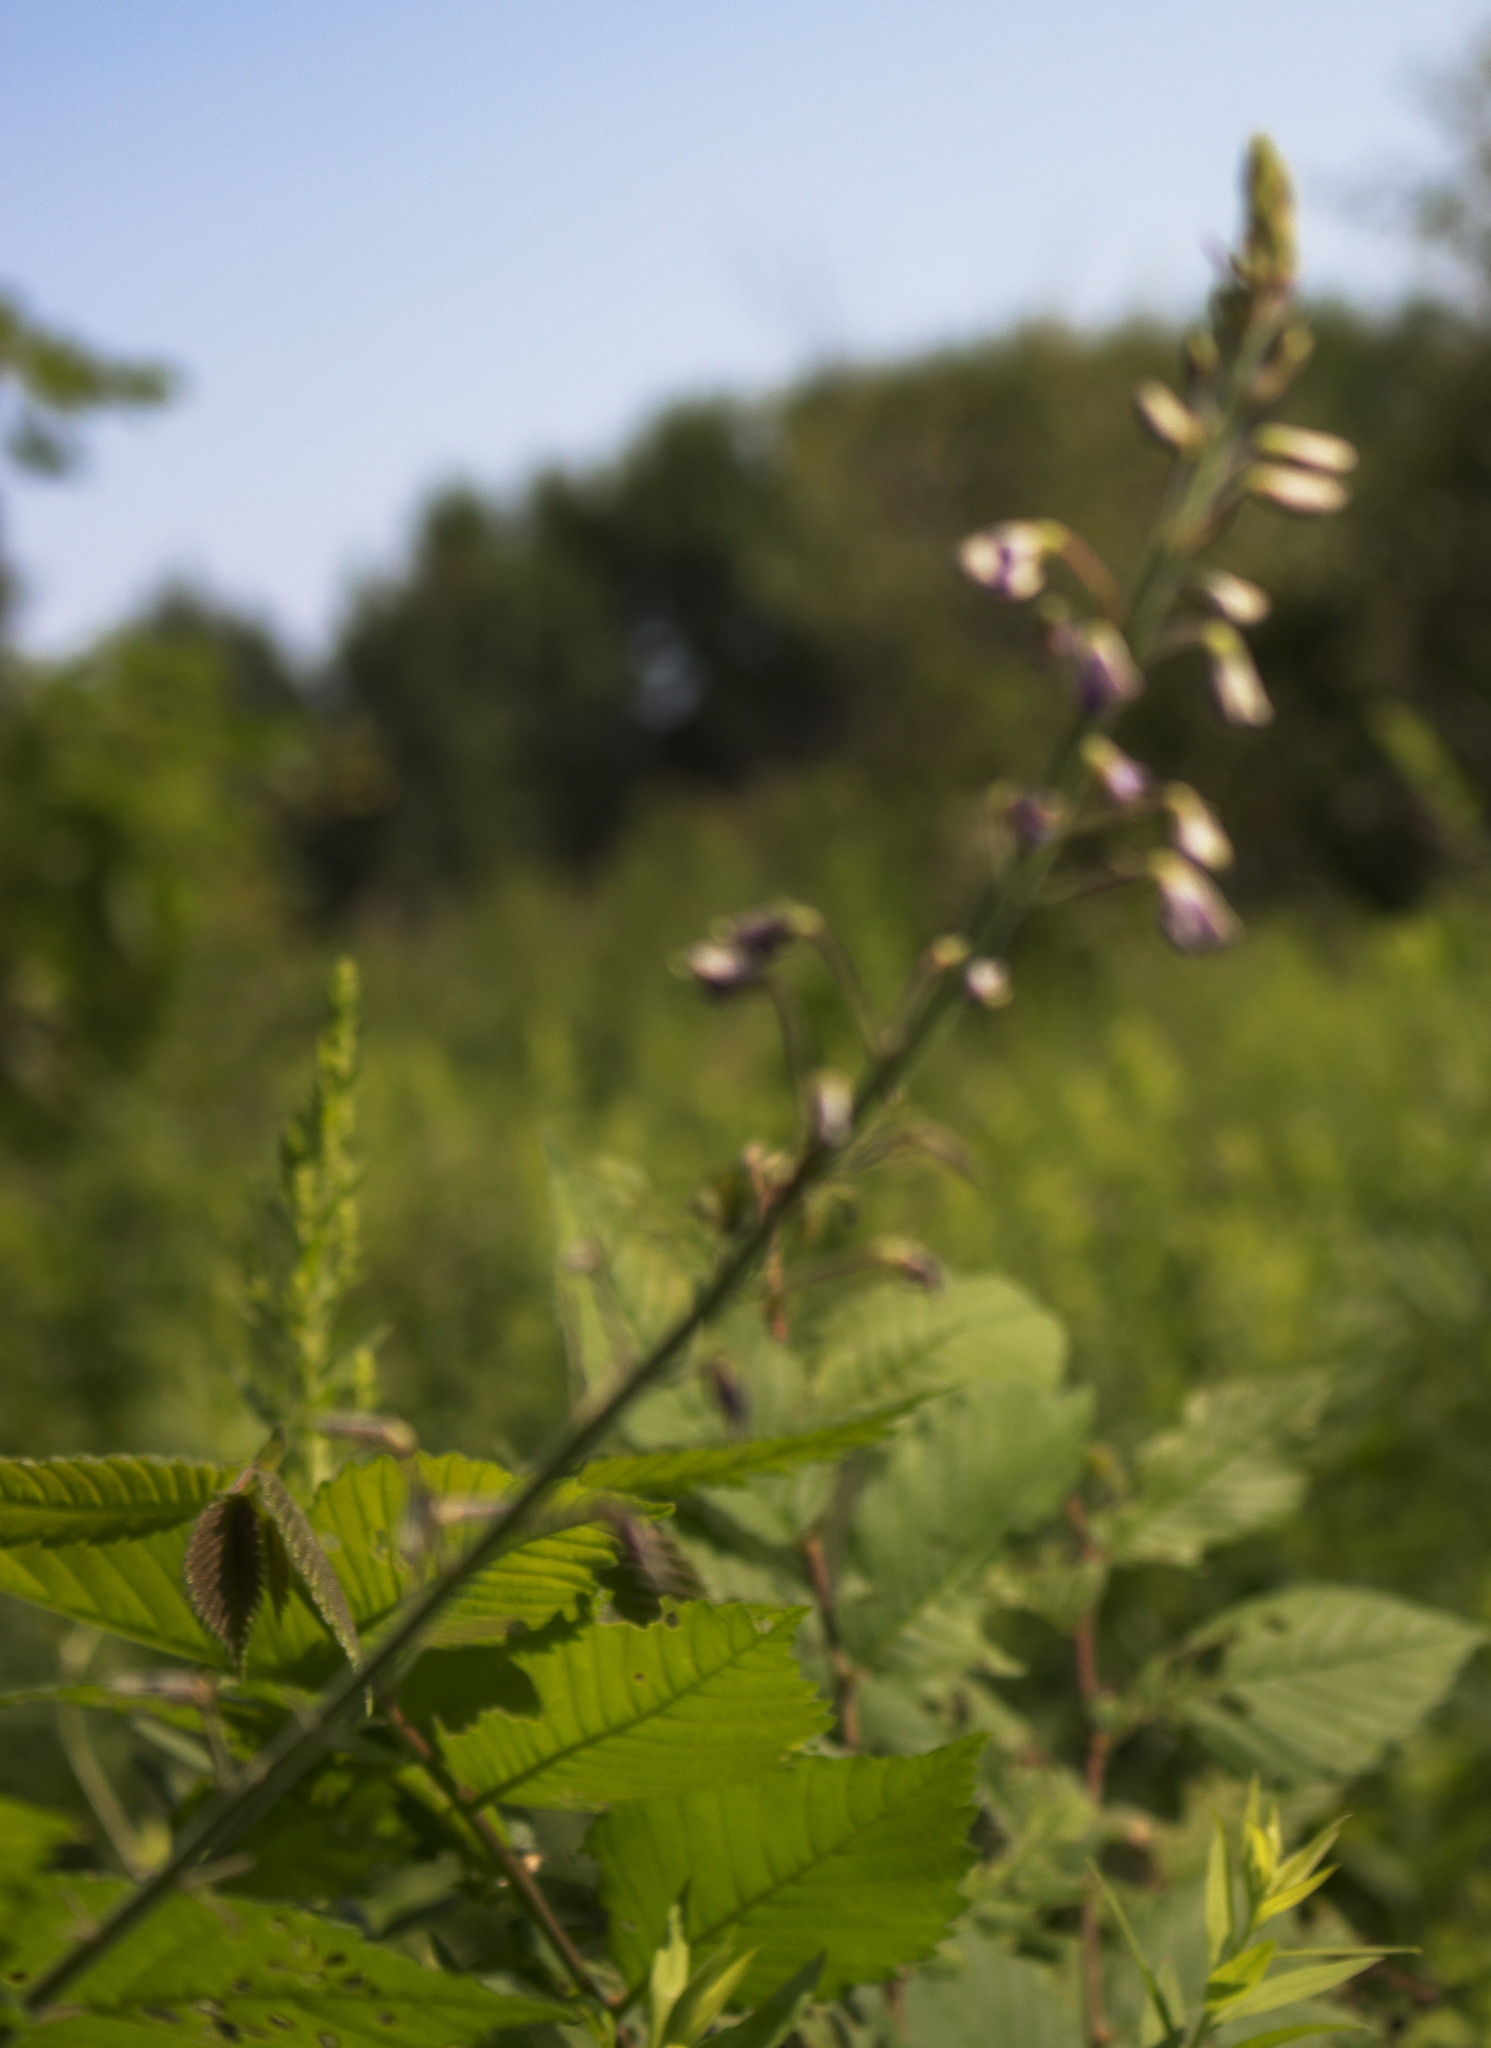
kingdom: Plantae
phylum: Tracheophyta
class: Magnoliopsida
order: Fabales
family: Fabaceae
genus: Desmodium
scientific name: Desmodium illinoense
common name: Illinois tick-clover
